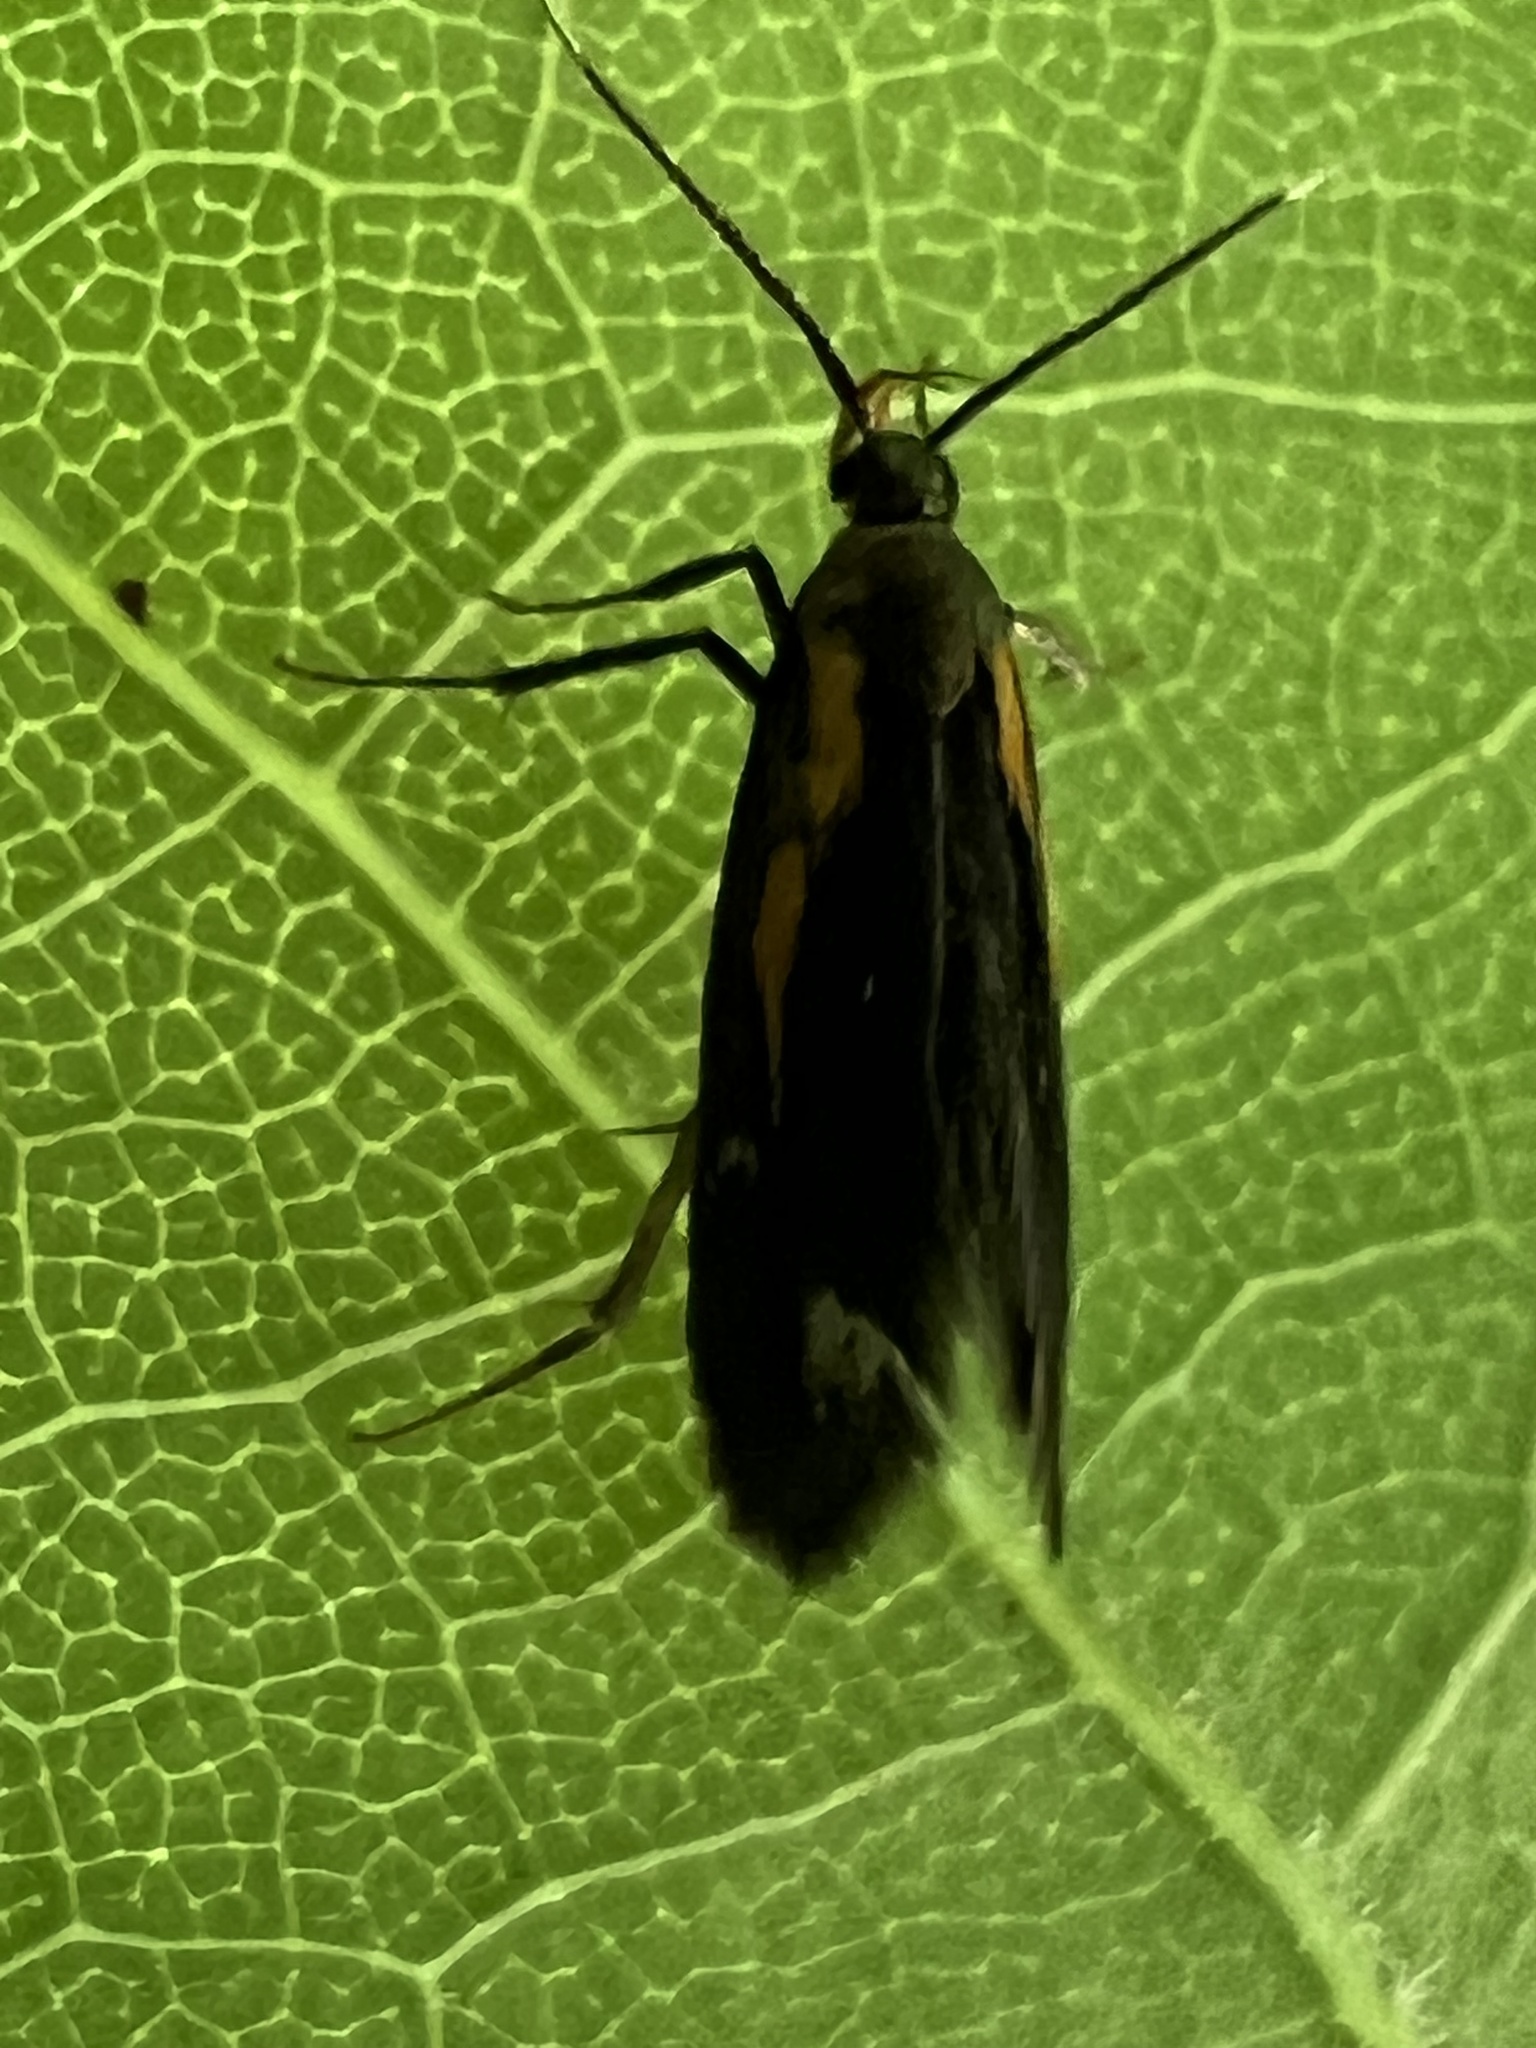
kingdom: Animalia
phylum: Arthropoda
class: Insecta
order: Lepidoptera
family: Oecophoridae
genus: Mathildana
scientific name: Mathildana newmanella
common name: Newman's mathildana moth
